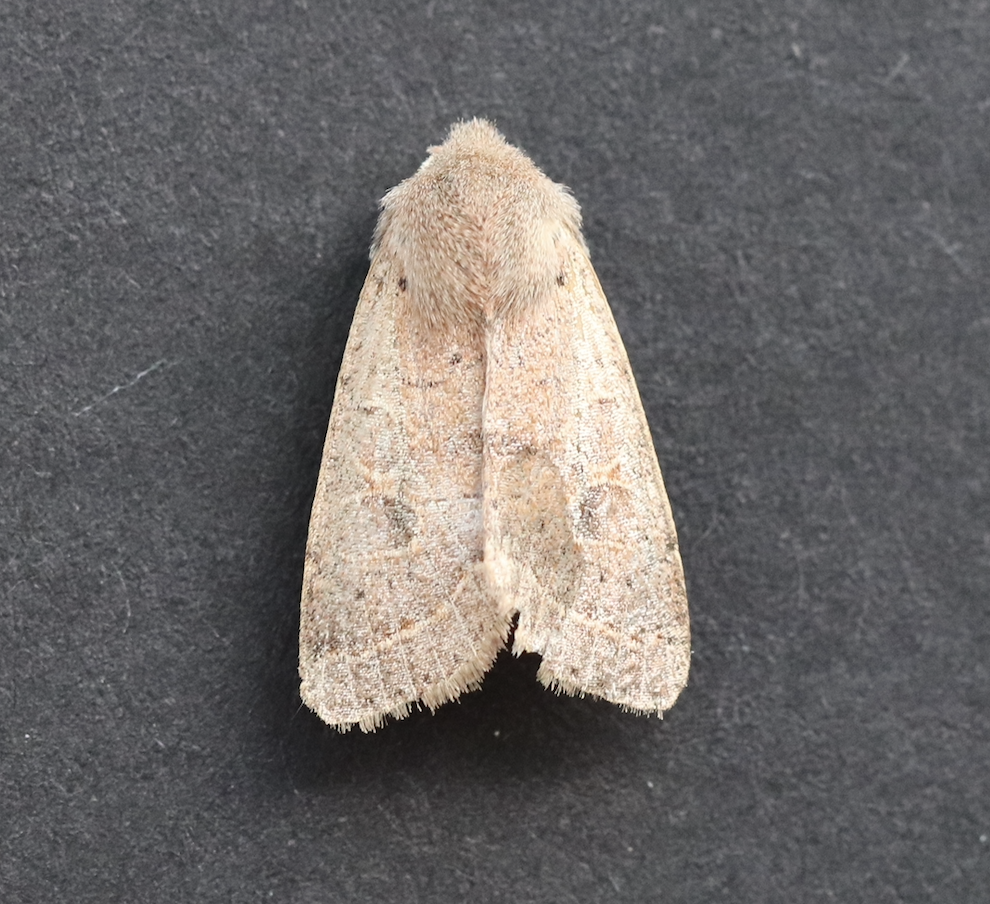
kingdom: Animalia
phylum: Arthropoda
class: Insecta
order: Lepidoptera
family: Noctuidae
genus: Orthosia
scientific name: Orthosia cerasi
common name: Common quaker
